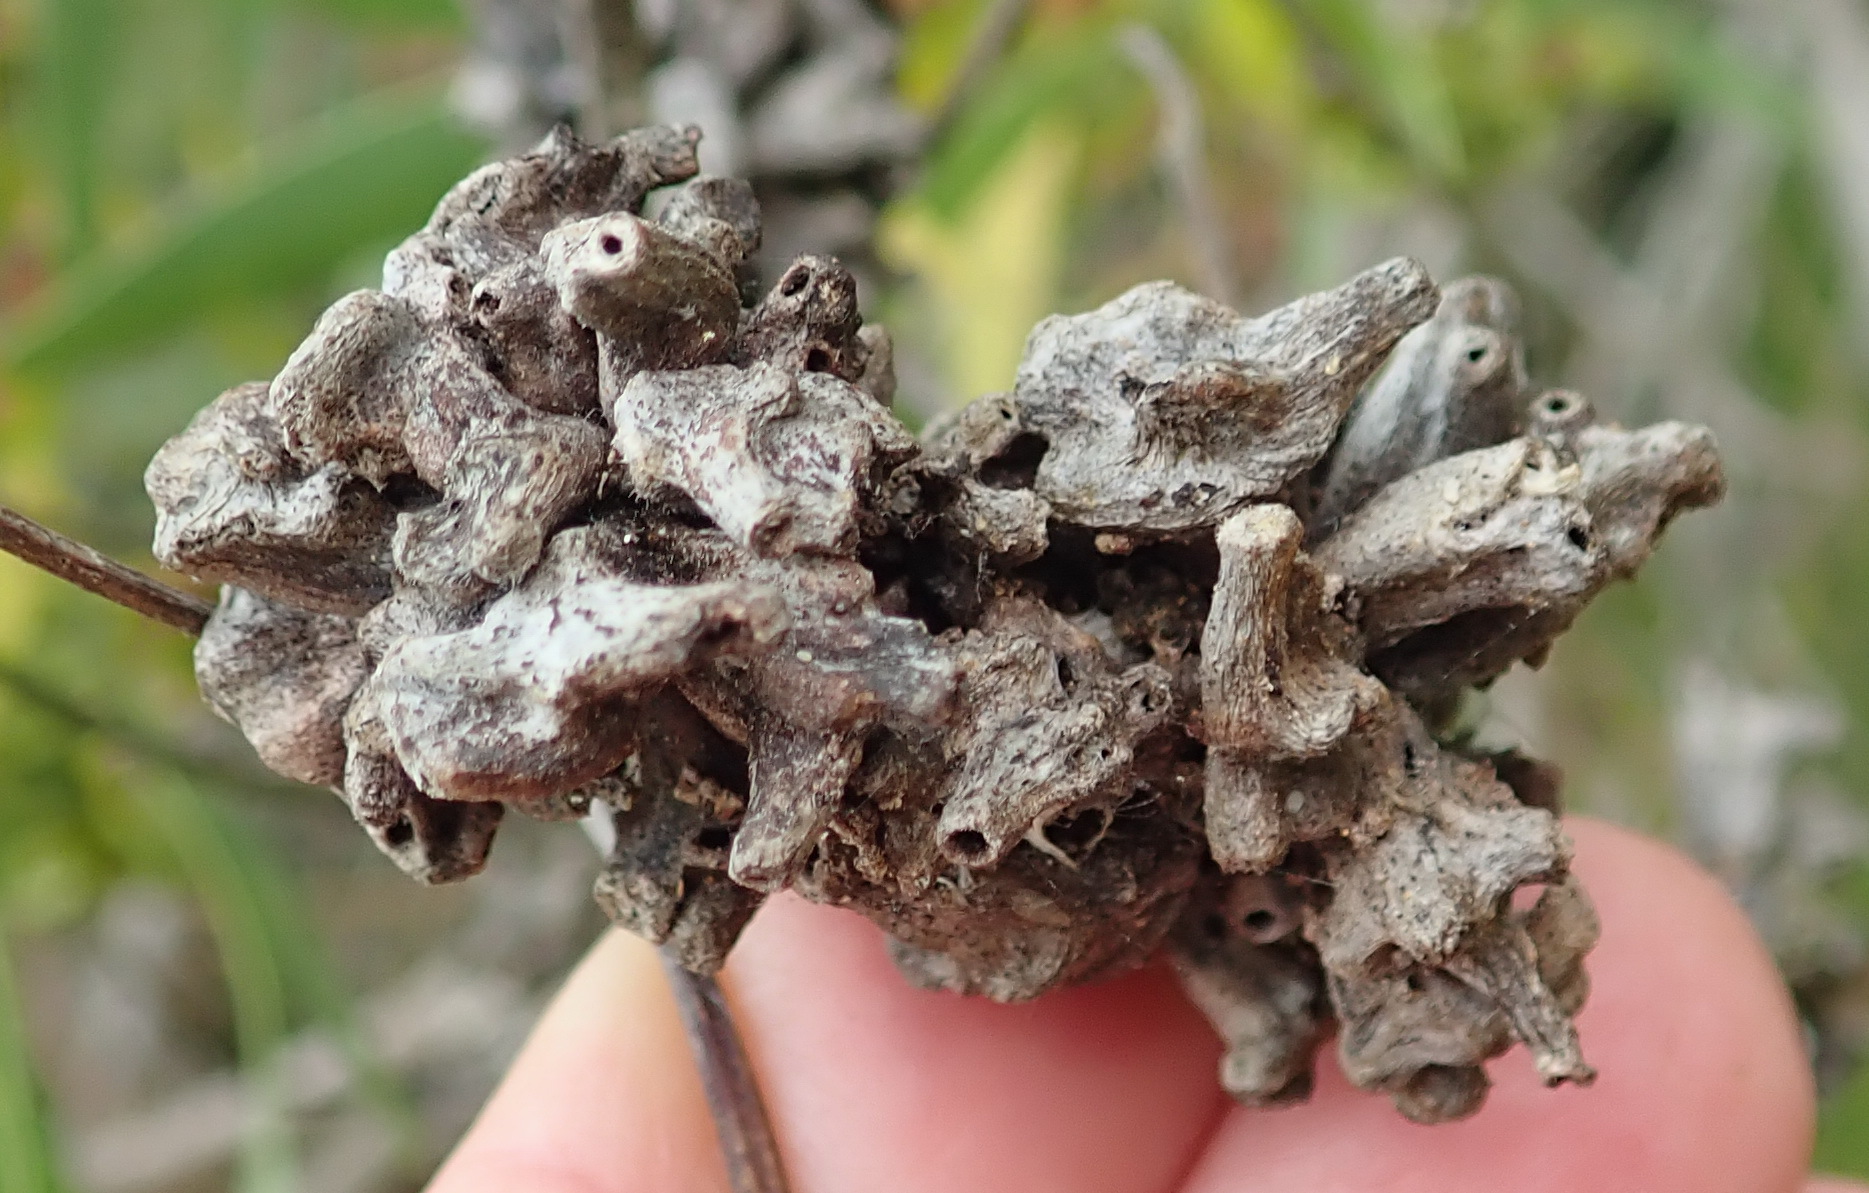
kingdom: Animalia
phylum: Arthropoda
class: Insecta
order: Diptera
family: Cecidomyiidae
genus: Dasineura
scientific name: Dasineura dielsi
